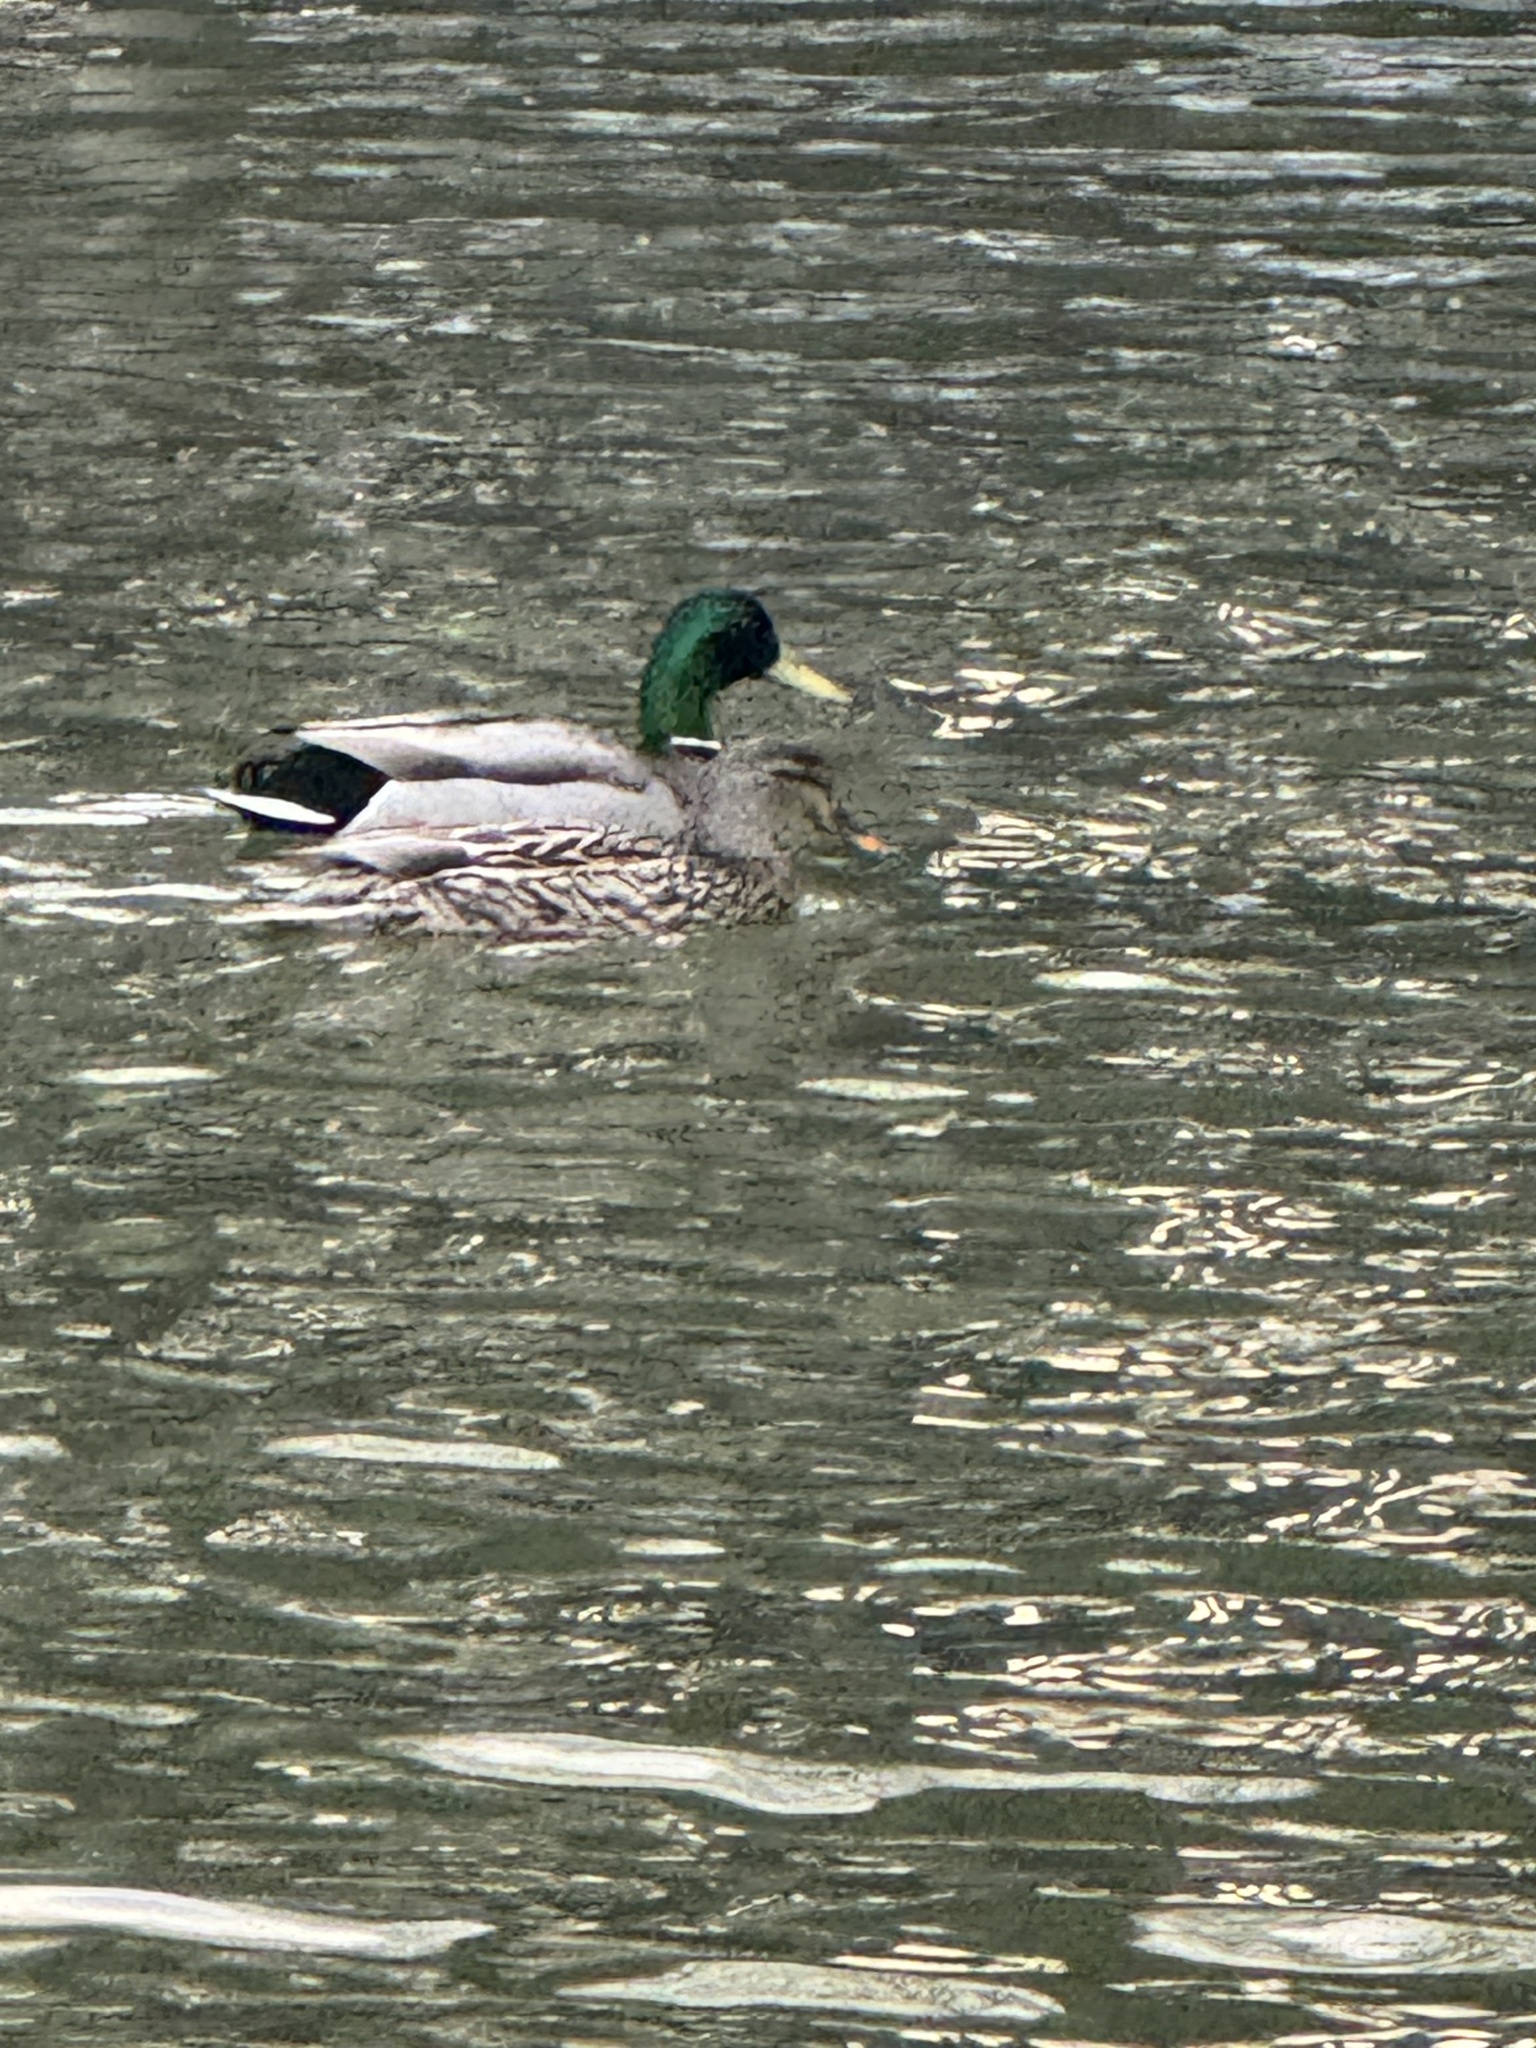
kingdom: Animalia
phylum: Chordata
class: Aves
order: Anseriformes
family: Anatidae
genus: Anas
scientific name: Anas platyrhynchos
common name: Mallard
